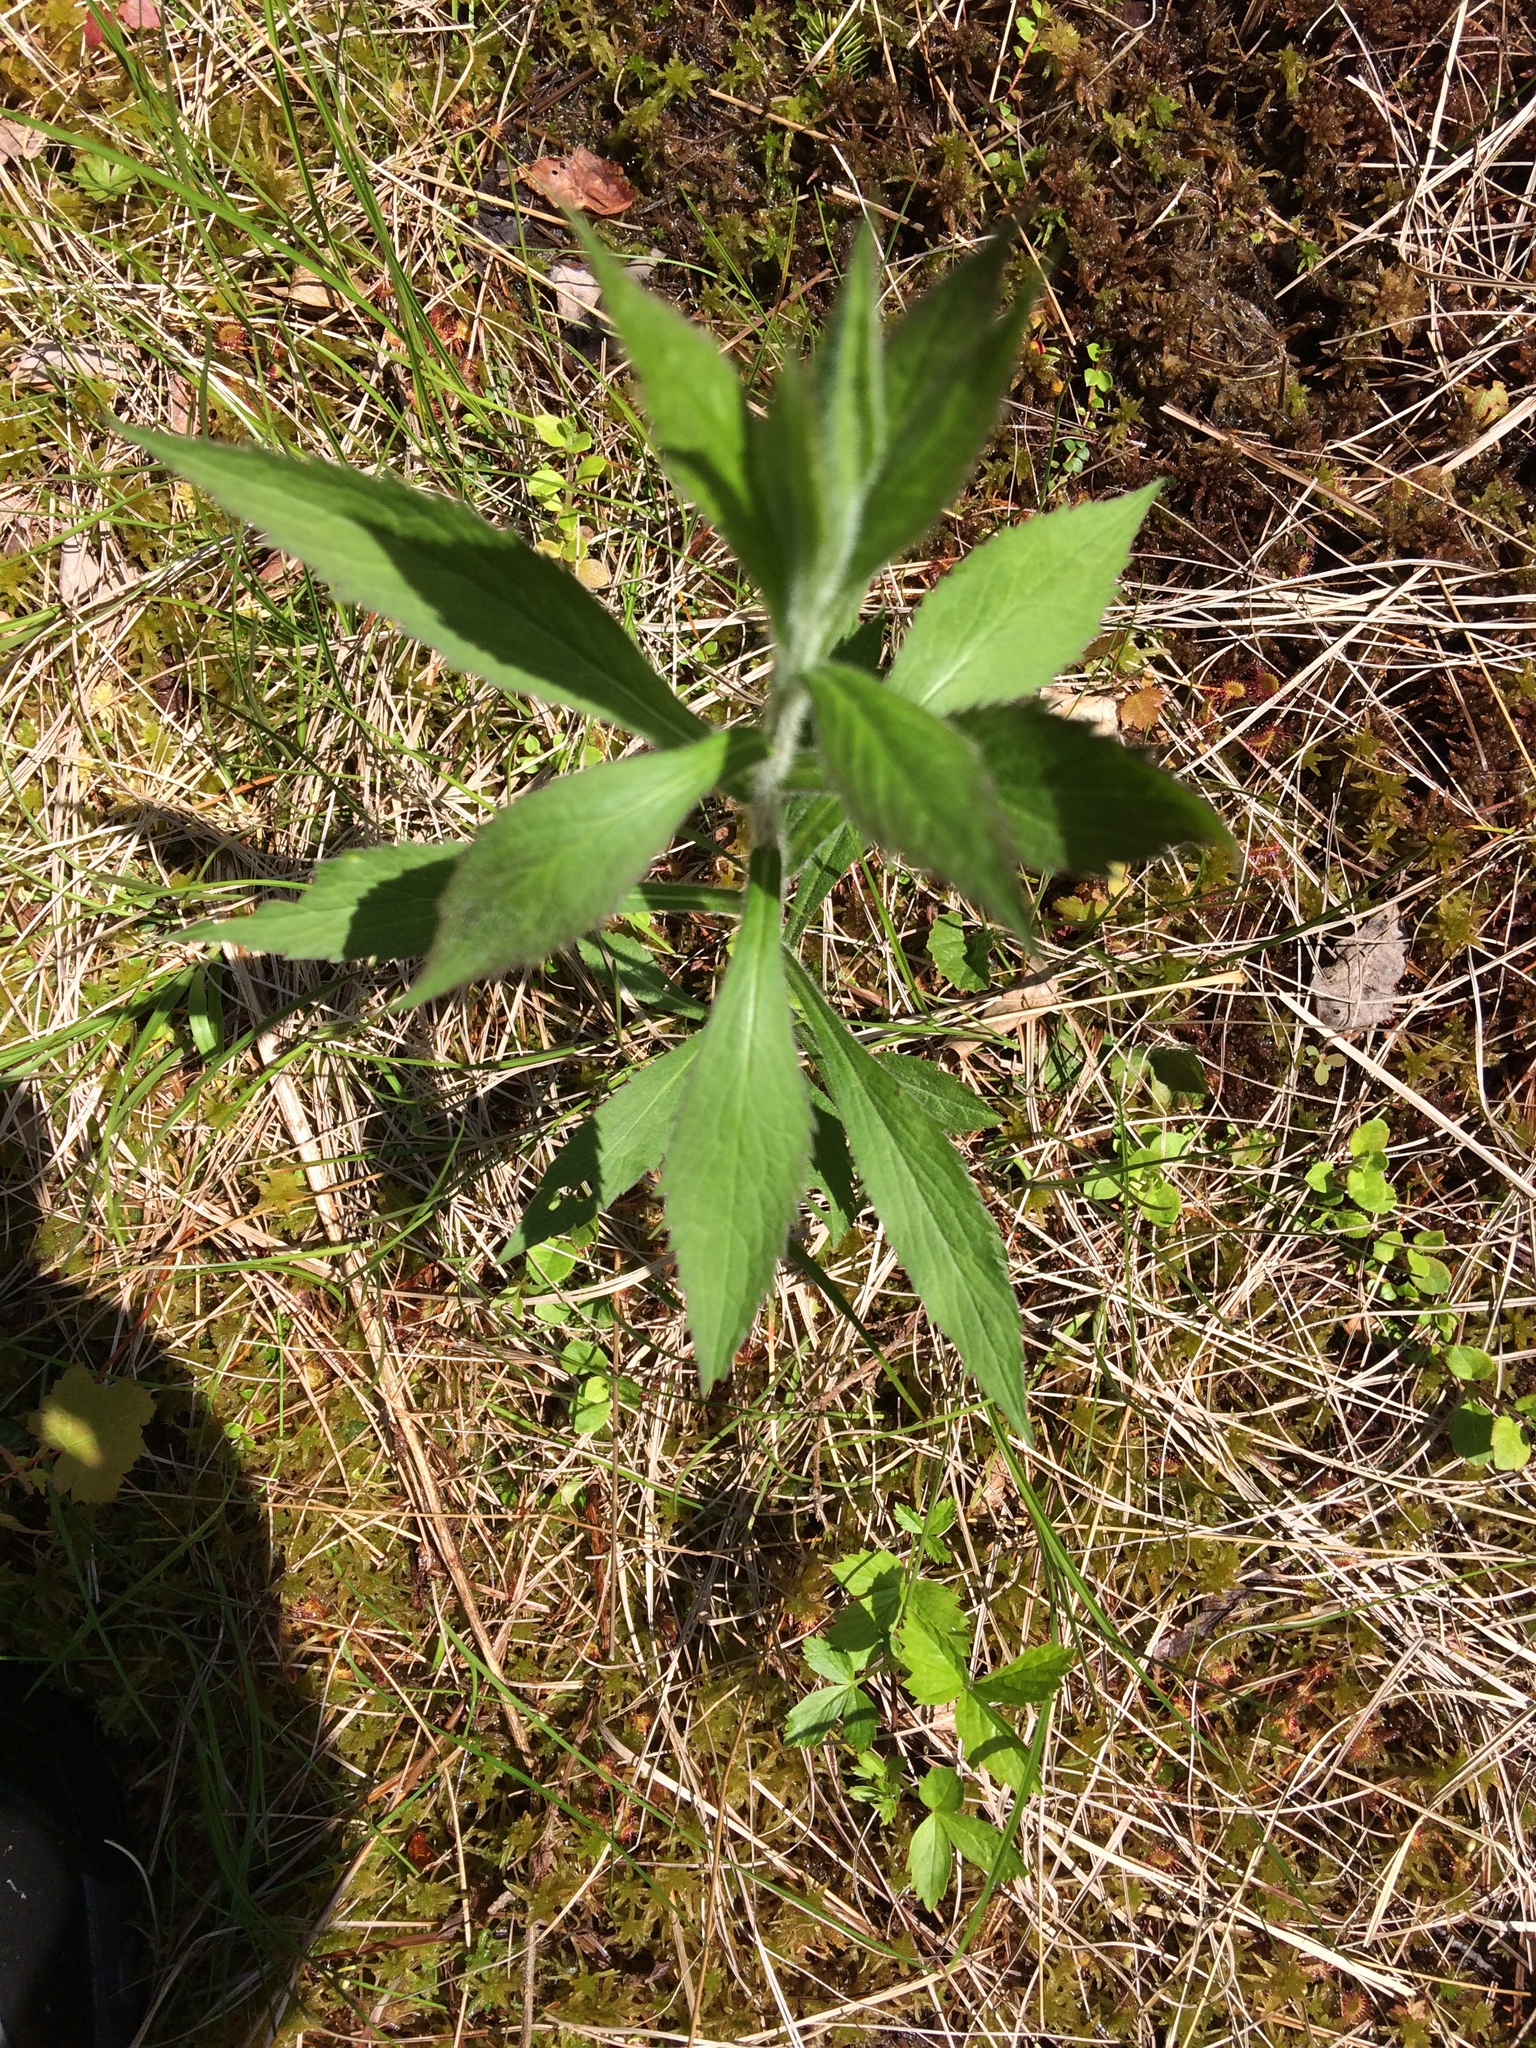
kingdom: Plantae
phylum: Tracheophyta
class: Magnoliopsida
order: Asterales
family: Asteraceae
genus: Solidago
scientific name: Solidago rugosa
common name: Rough-stemmed goldenrod
